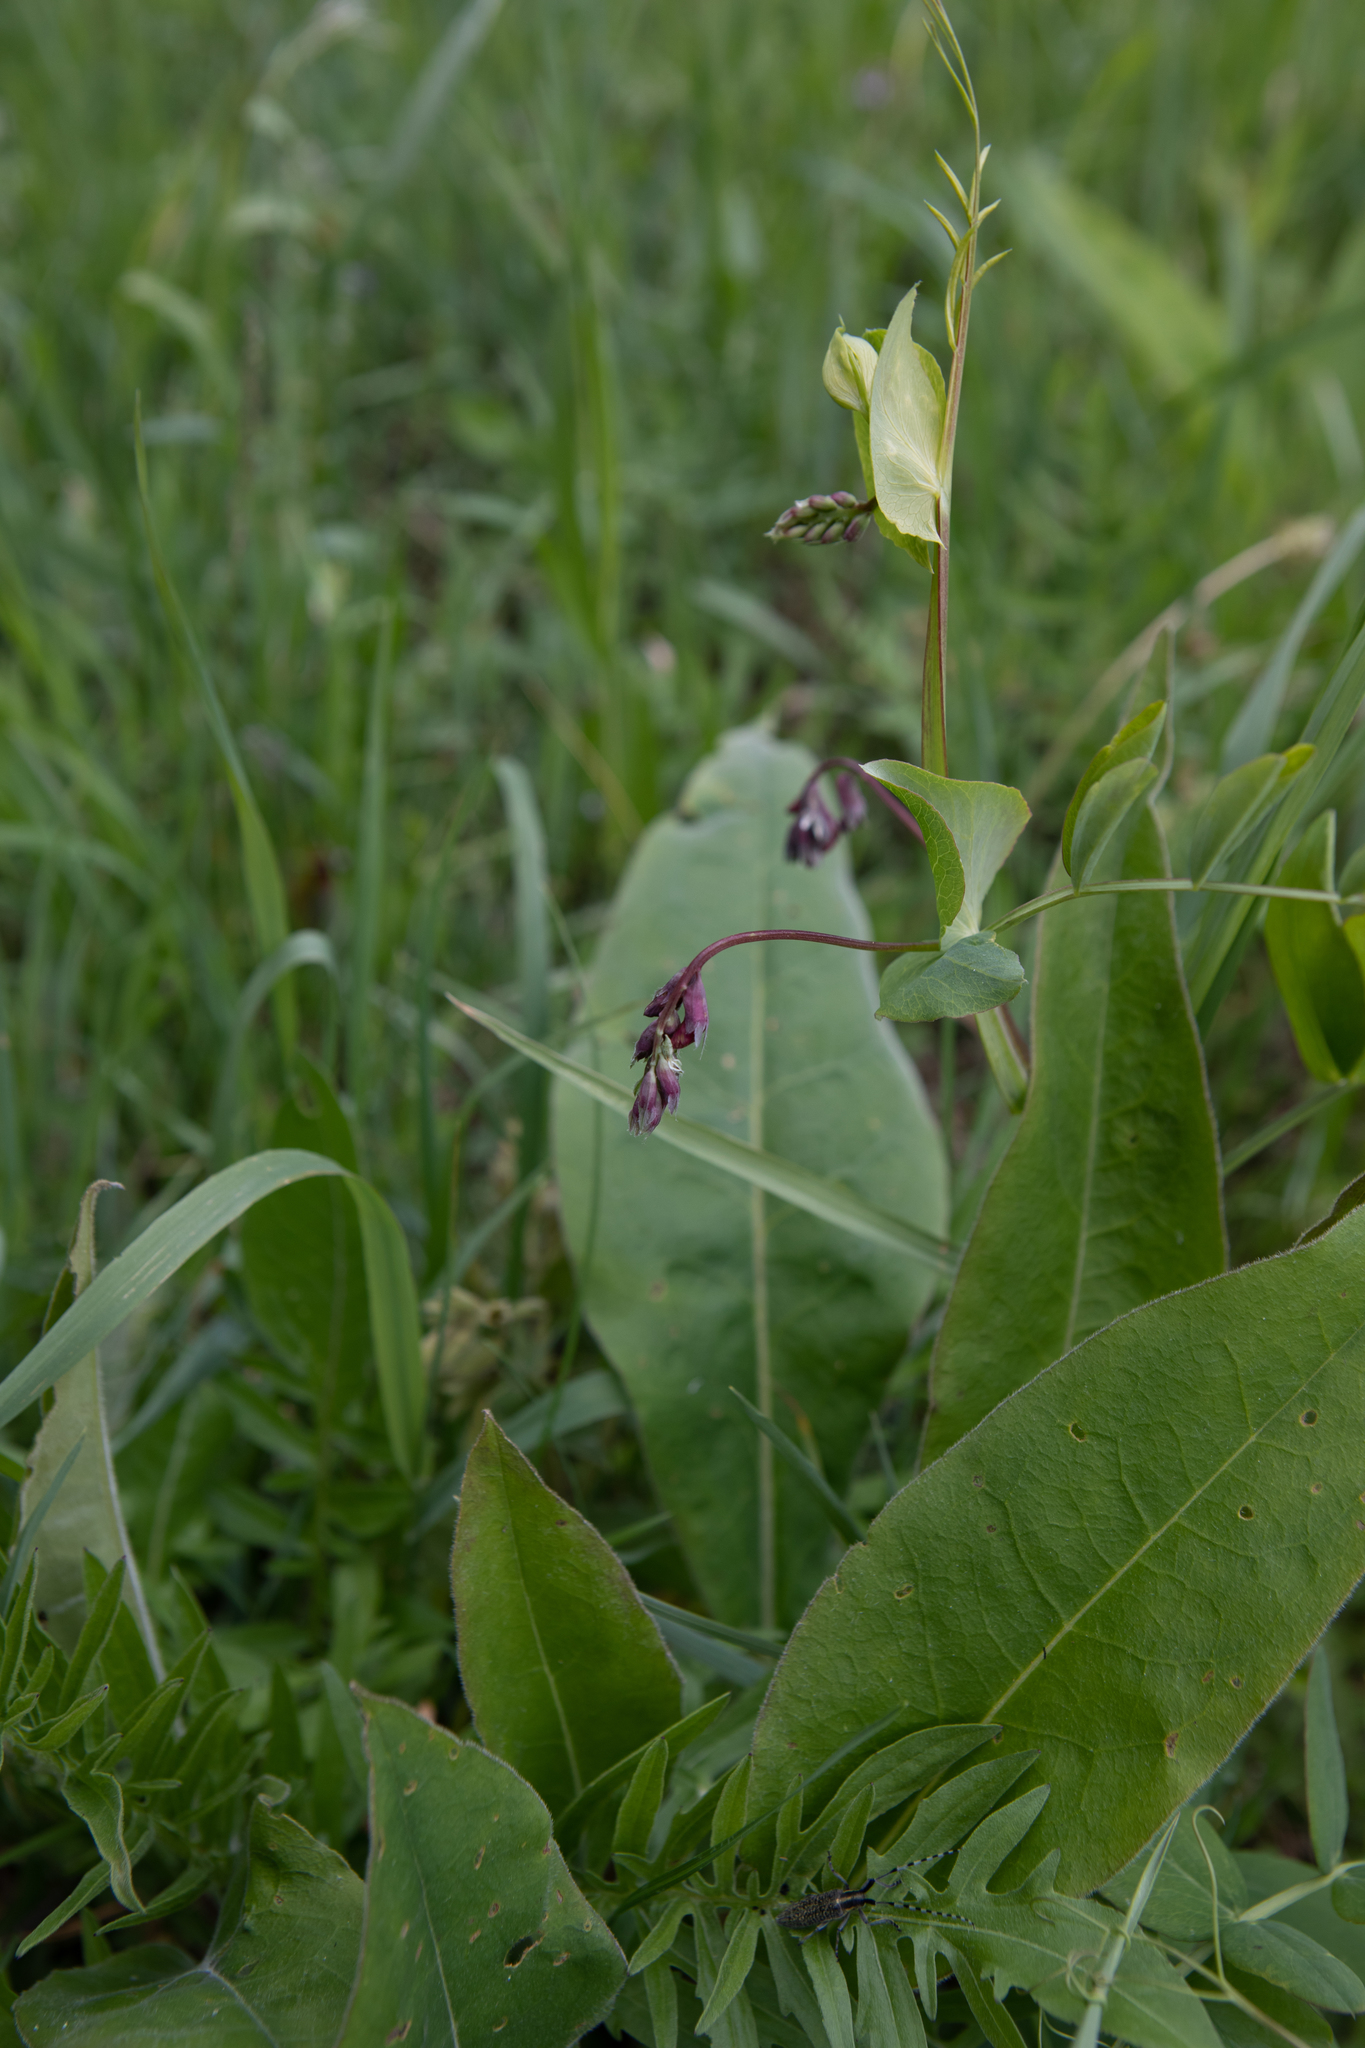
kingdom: Plantae
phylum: Tracheophyta
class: Magnoliopsida
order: Fabales
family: Fabaceae
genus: Lathyrus
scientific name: Lathyrus pisiformis
